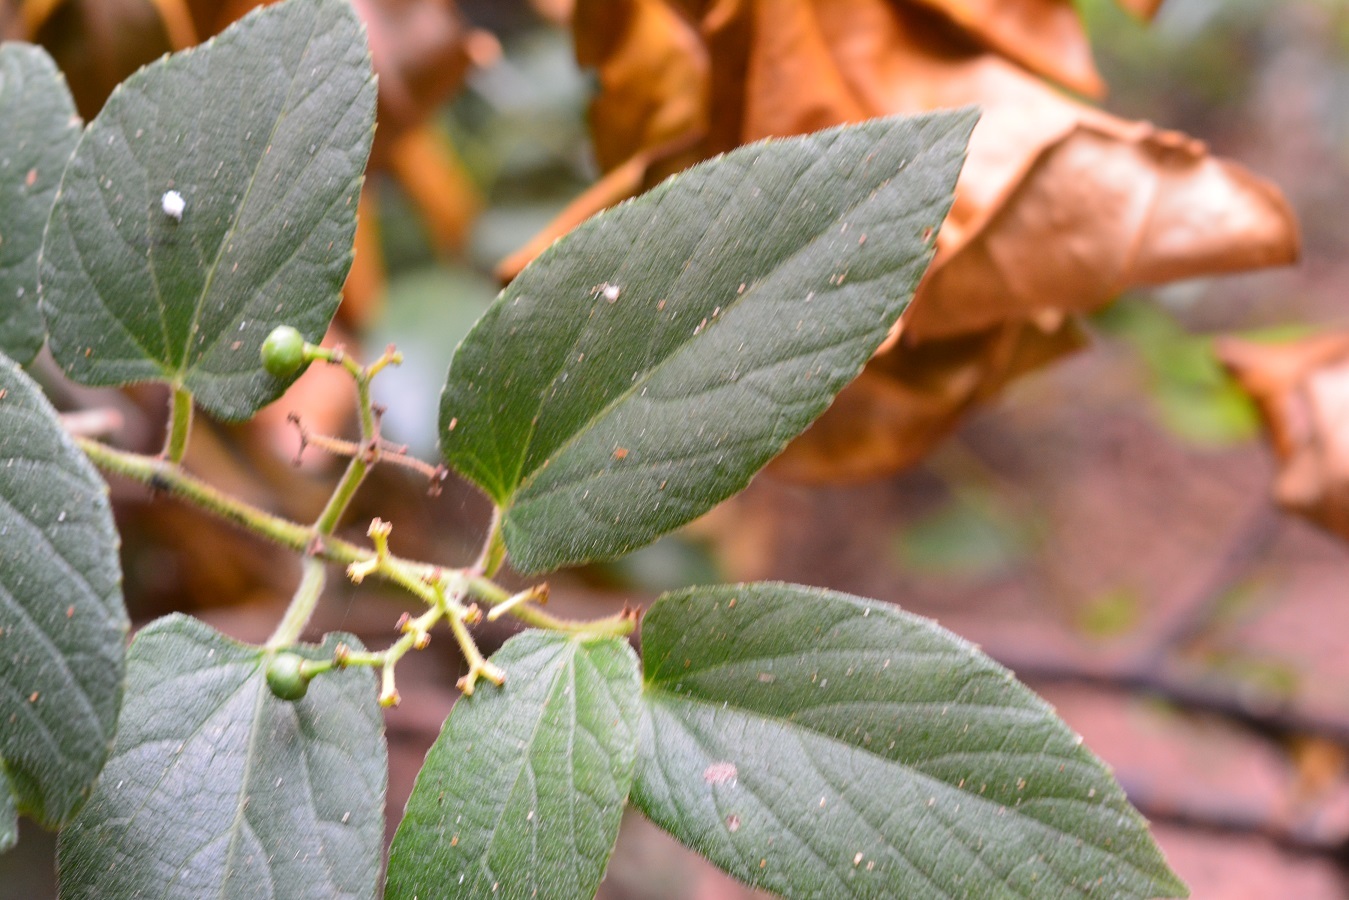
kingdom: Plantae
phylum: Tracheophyta
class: Magnoliopsida
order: Vitales
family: Vitaceae
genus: Cissus
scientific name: Cissus cacuminis
